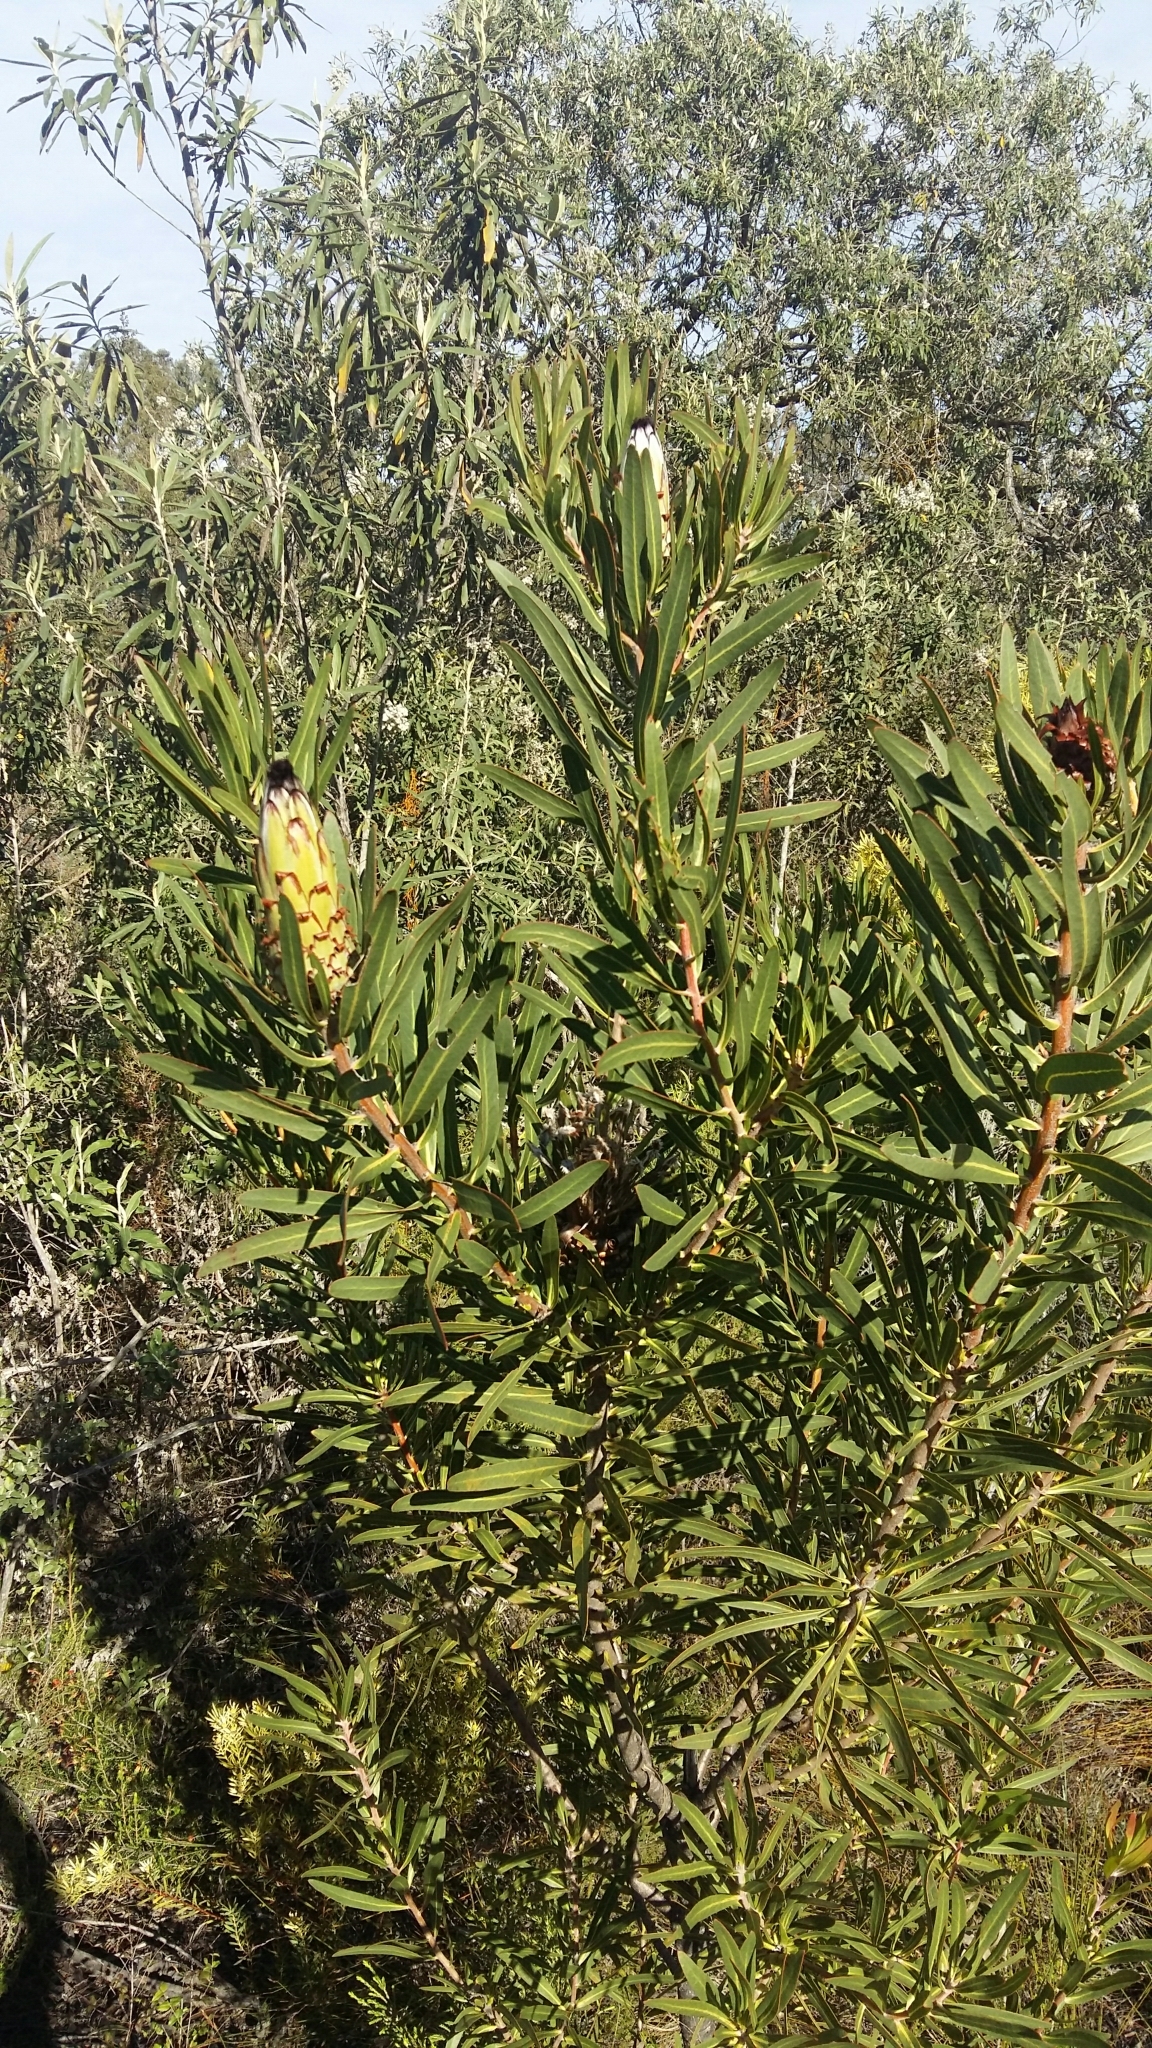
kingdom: Plantae
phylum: Tracheophyta
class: Magnoliopsida
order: Proteales
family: Proteaceae
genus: Protea
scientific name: Protea neriifolia
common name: Blue sugarbush
